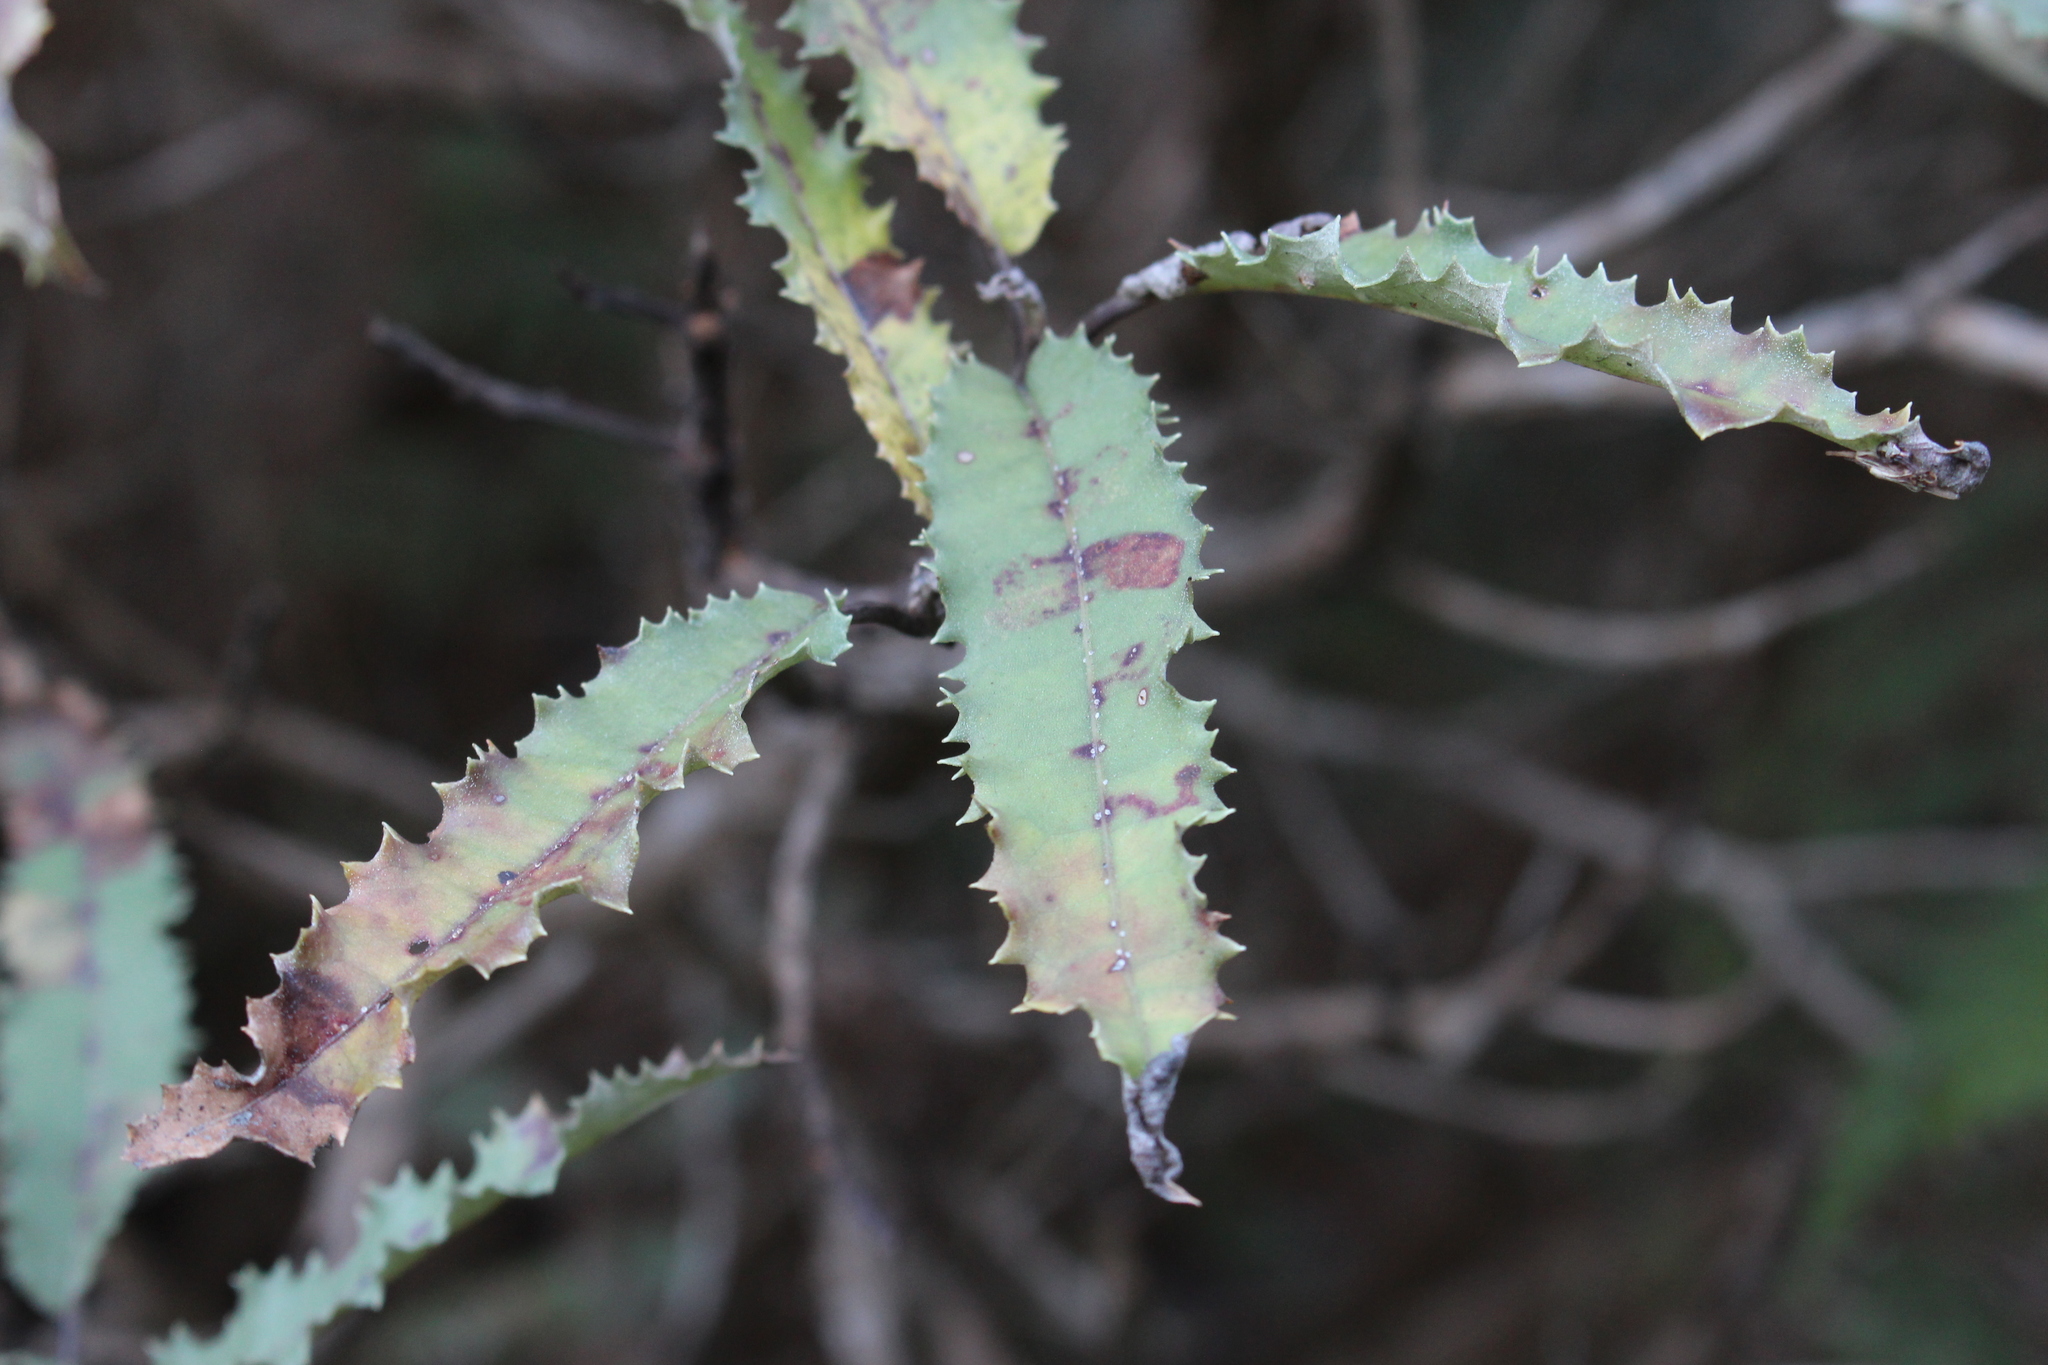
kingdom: Plantae
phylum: Tracheophyta
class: Magnoliopsida
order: Asterales
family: Asteraceae
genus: Olearia
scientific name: Olearia ilicifolia
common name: Maori-holly
